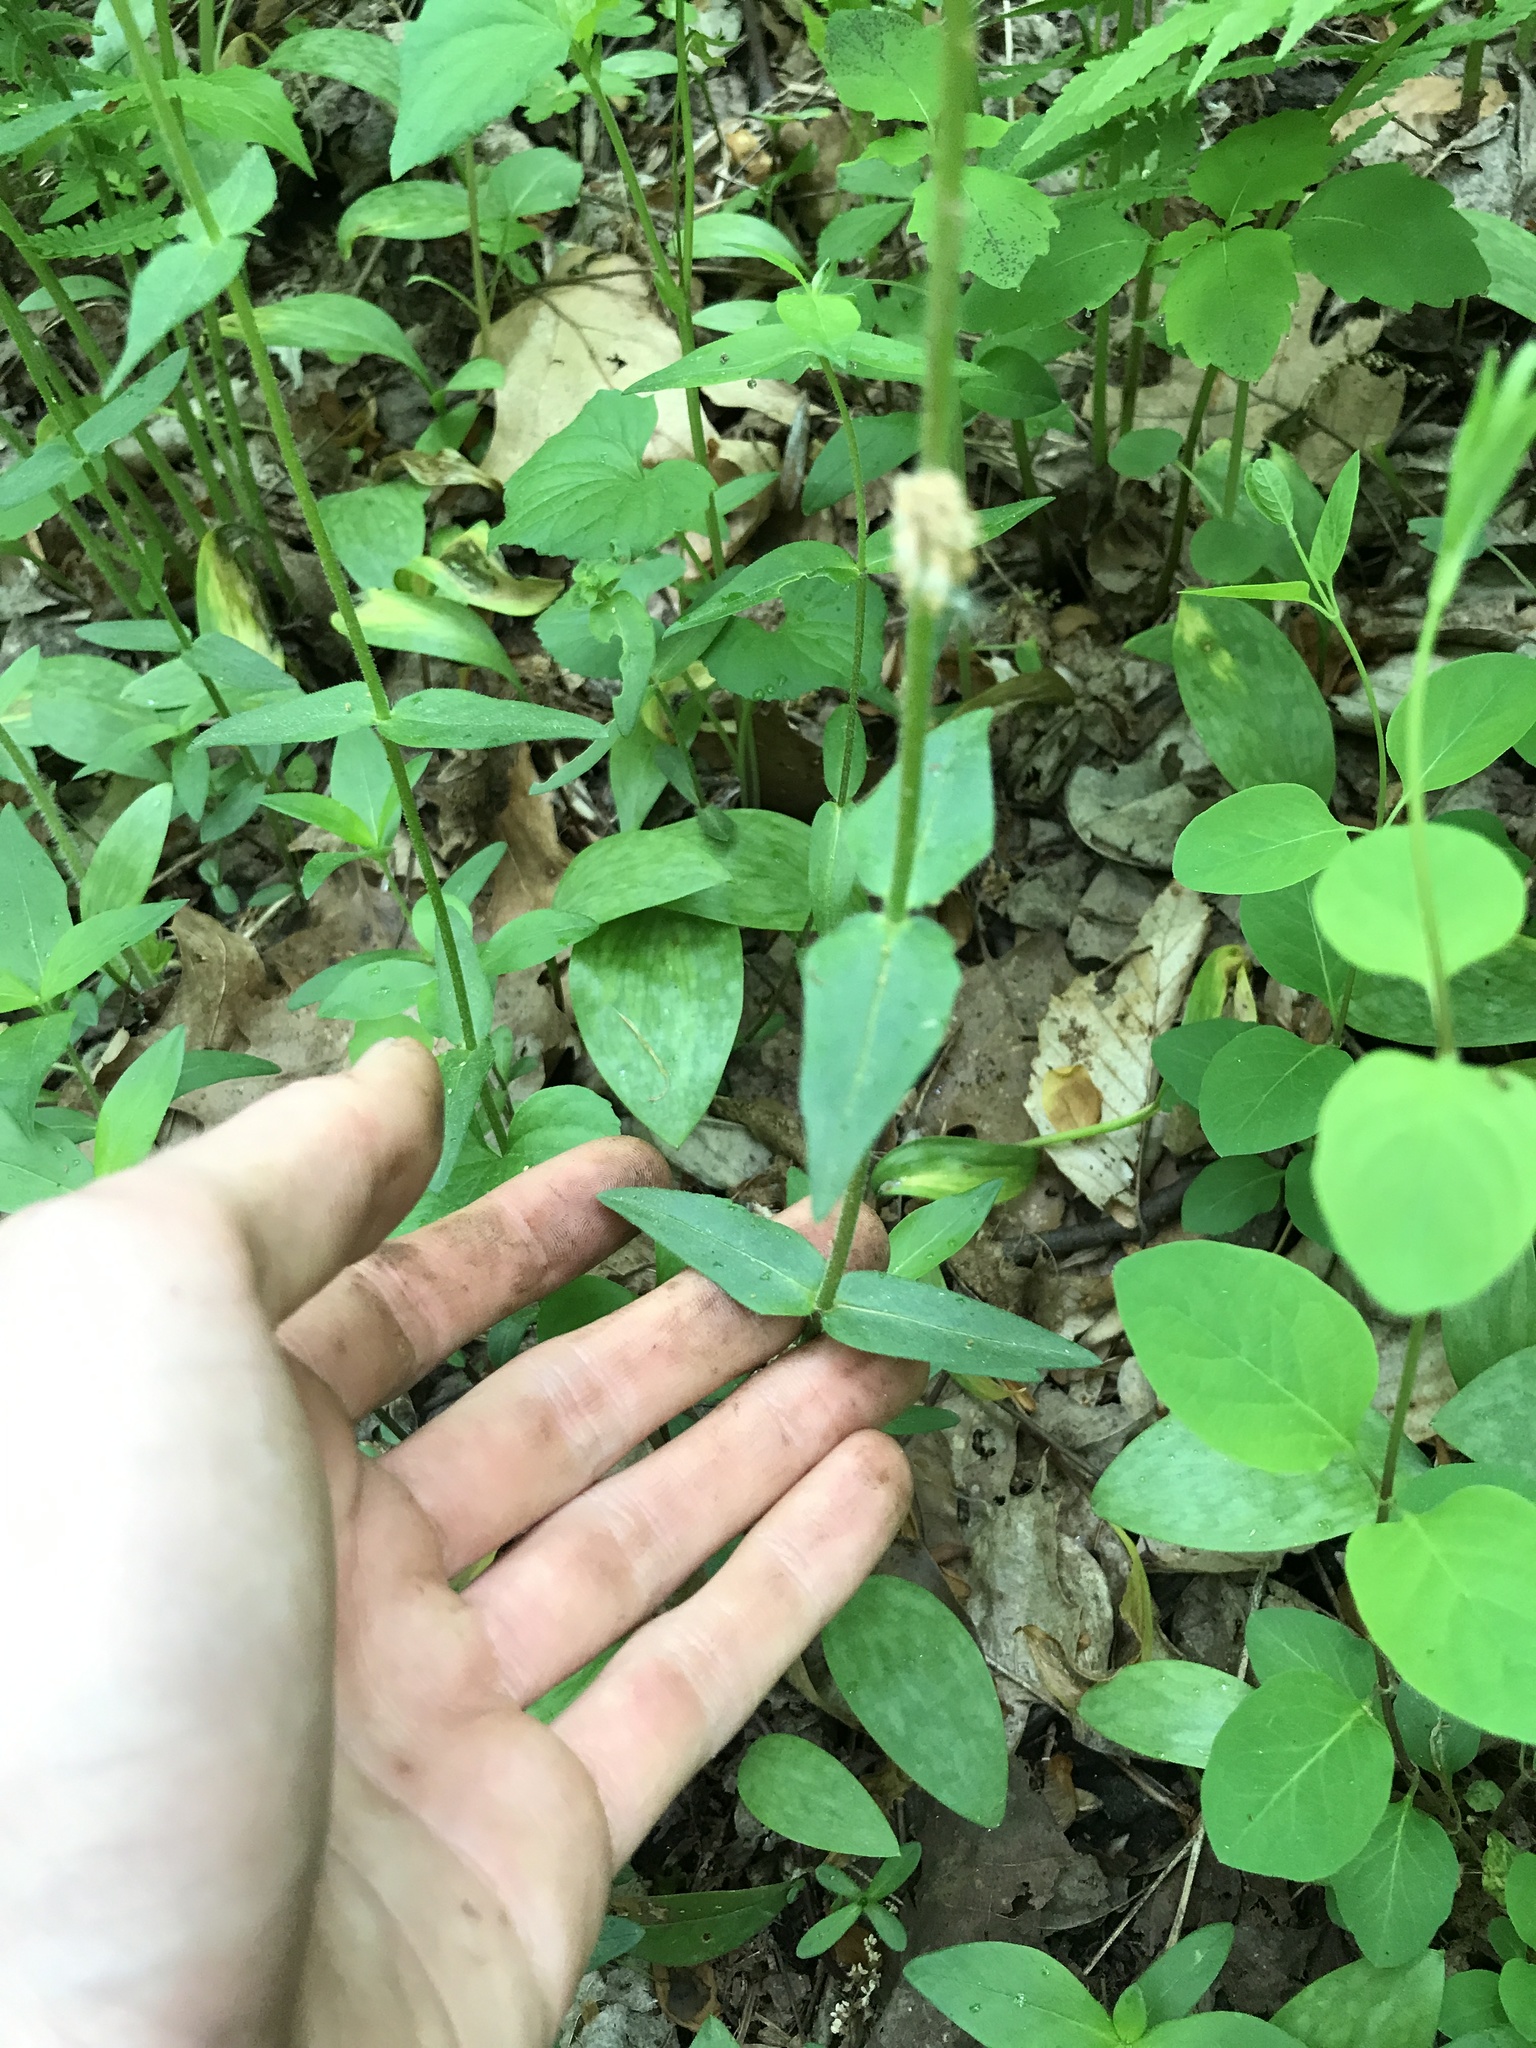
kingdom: Plantae
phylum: Tracheophyta
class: Magnoliopsida
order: Ericales
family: Polemoniaceae
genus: Phlox
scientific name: Phlox divaricata
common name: Blue phlox
